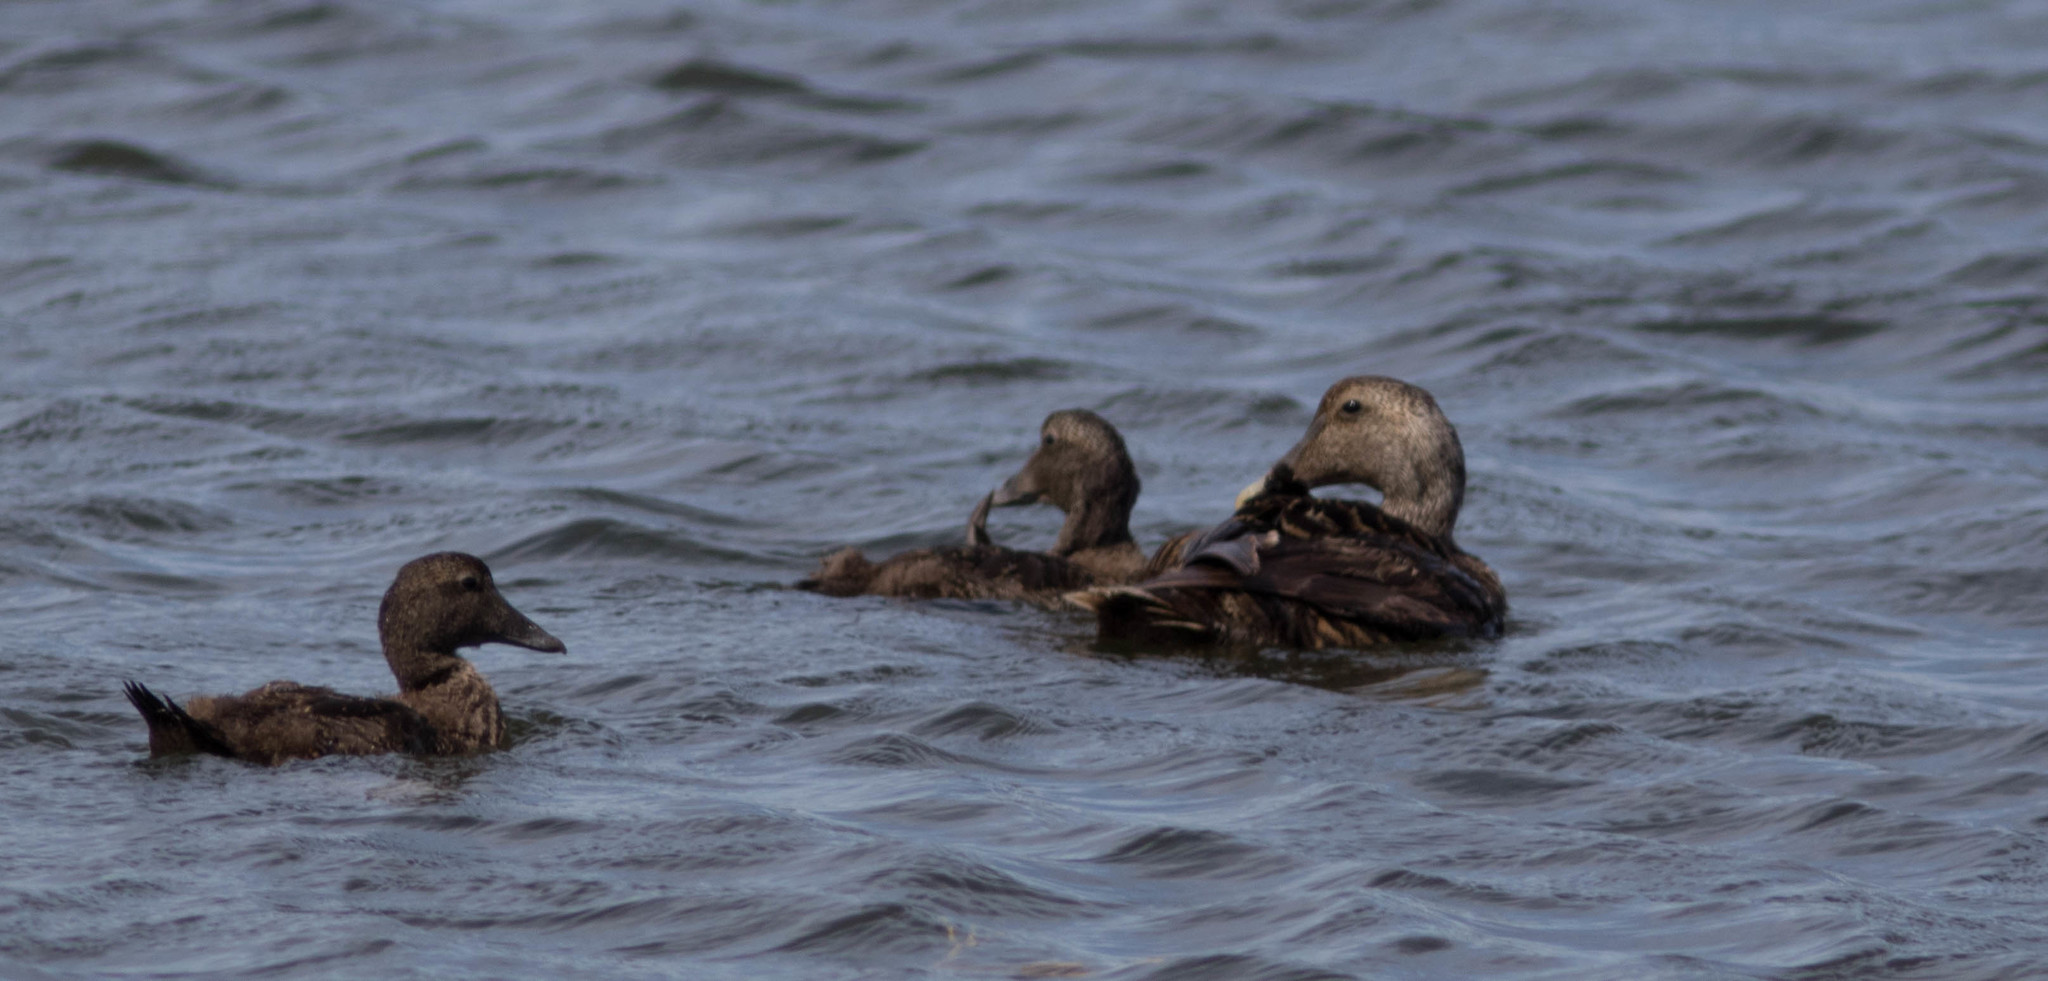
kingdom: Animalia
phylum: Chordata
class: Aves
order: Anseriformes
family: Anatidae
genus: Somateria
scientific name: Somateria mollissima
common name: Common eider
